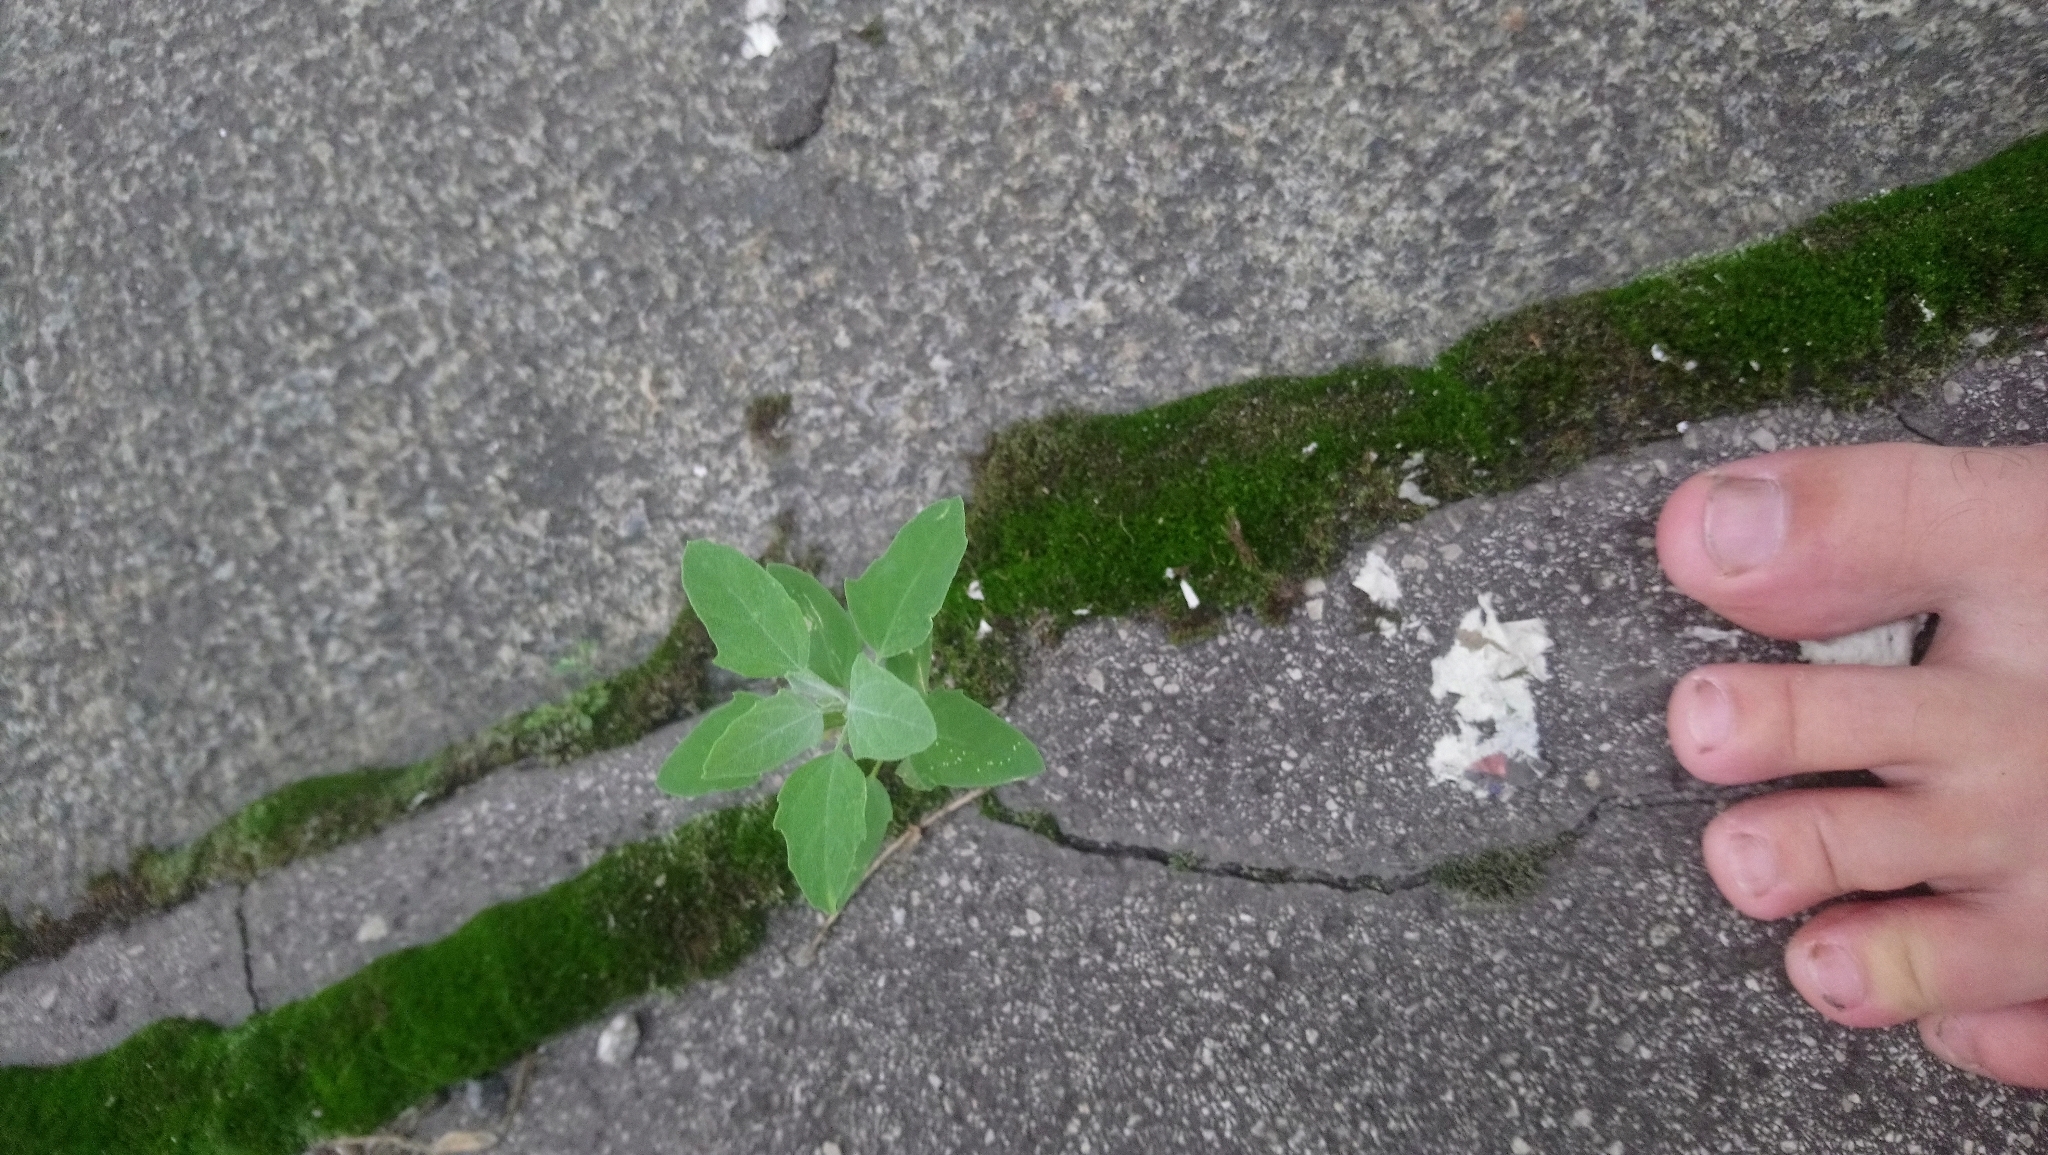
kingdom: Plantae
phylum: Tracheophyta
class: Magnoliopsida
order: Caryophyllales
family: Amaranthaceae
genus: Chenopodium
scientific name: Chenopodium album
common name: Fat-hen
